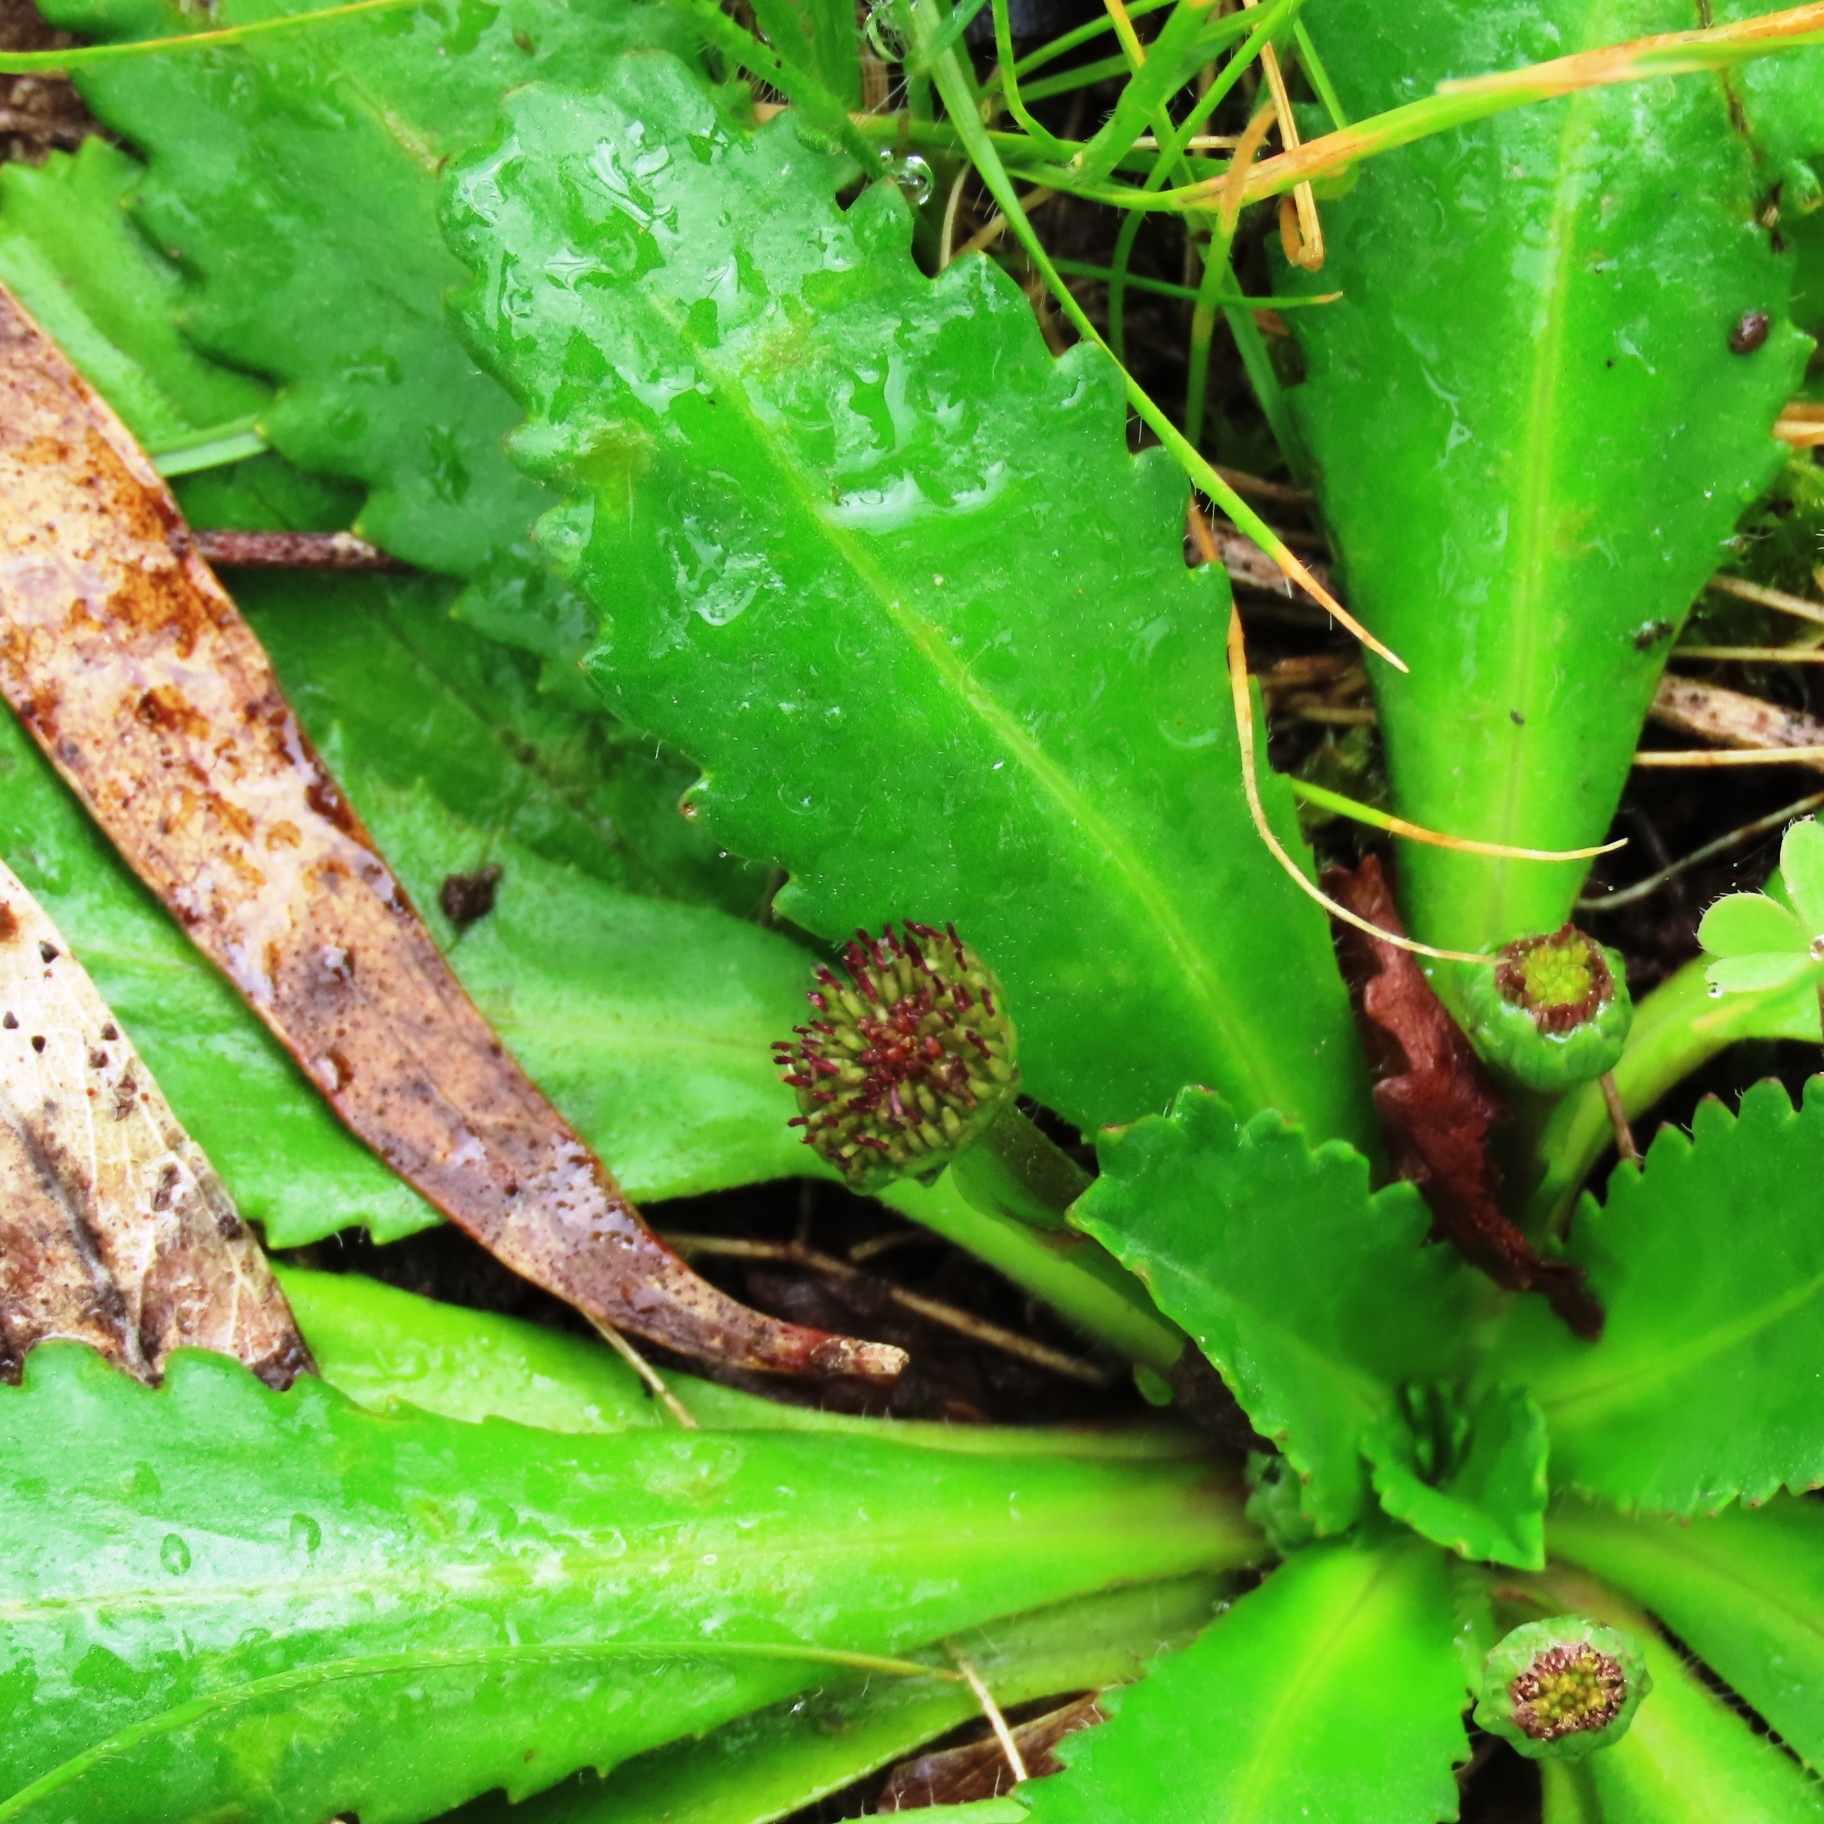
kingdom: Plantae
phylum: Tracheophyta
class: Magnoliopsida
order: Asterales
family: Asteraceae
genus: Solenogyne
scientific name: Solenogyne dominii
